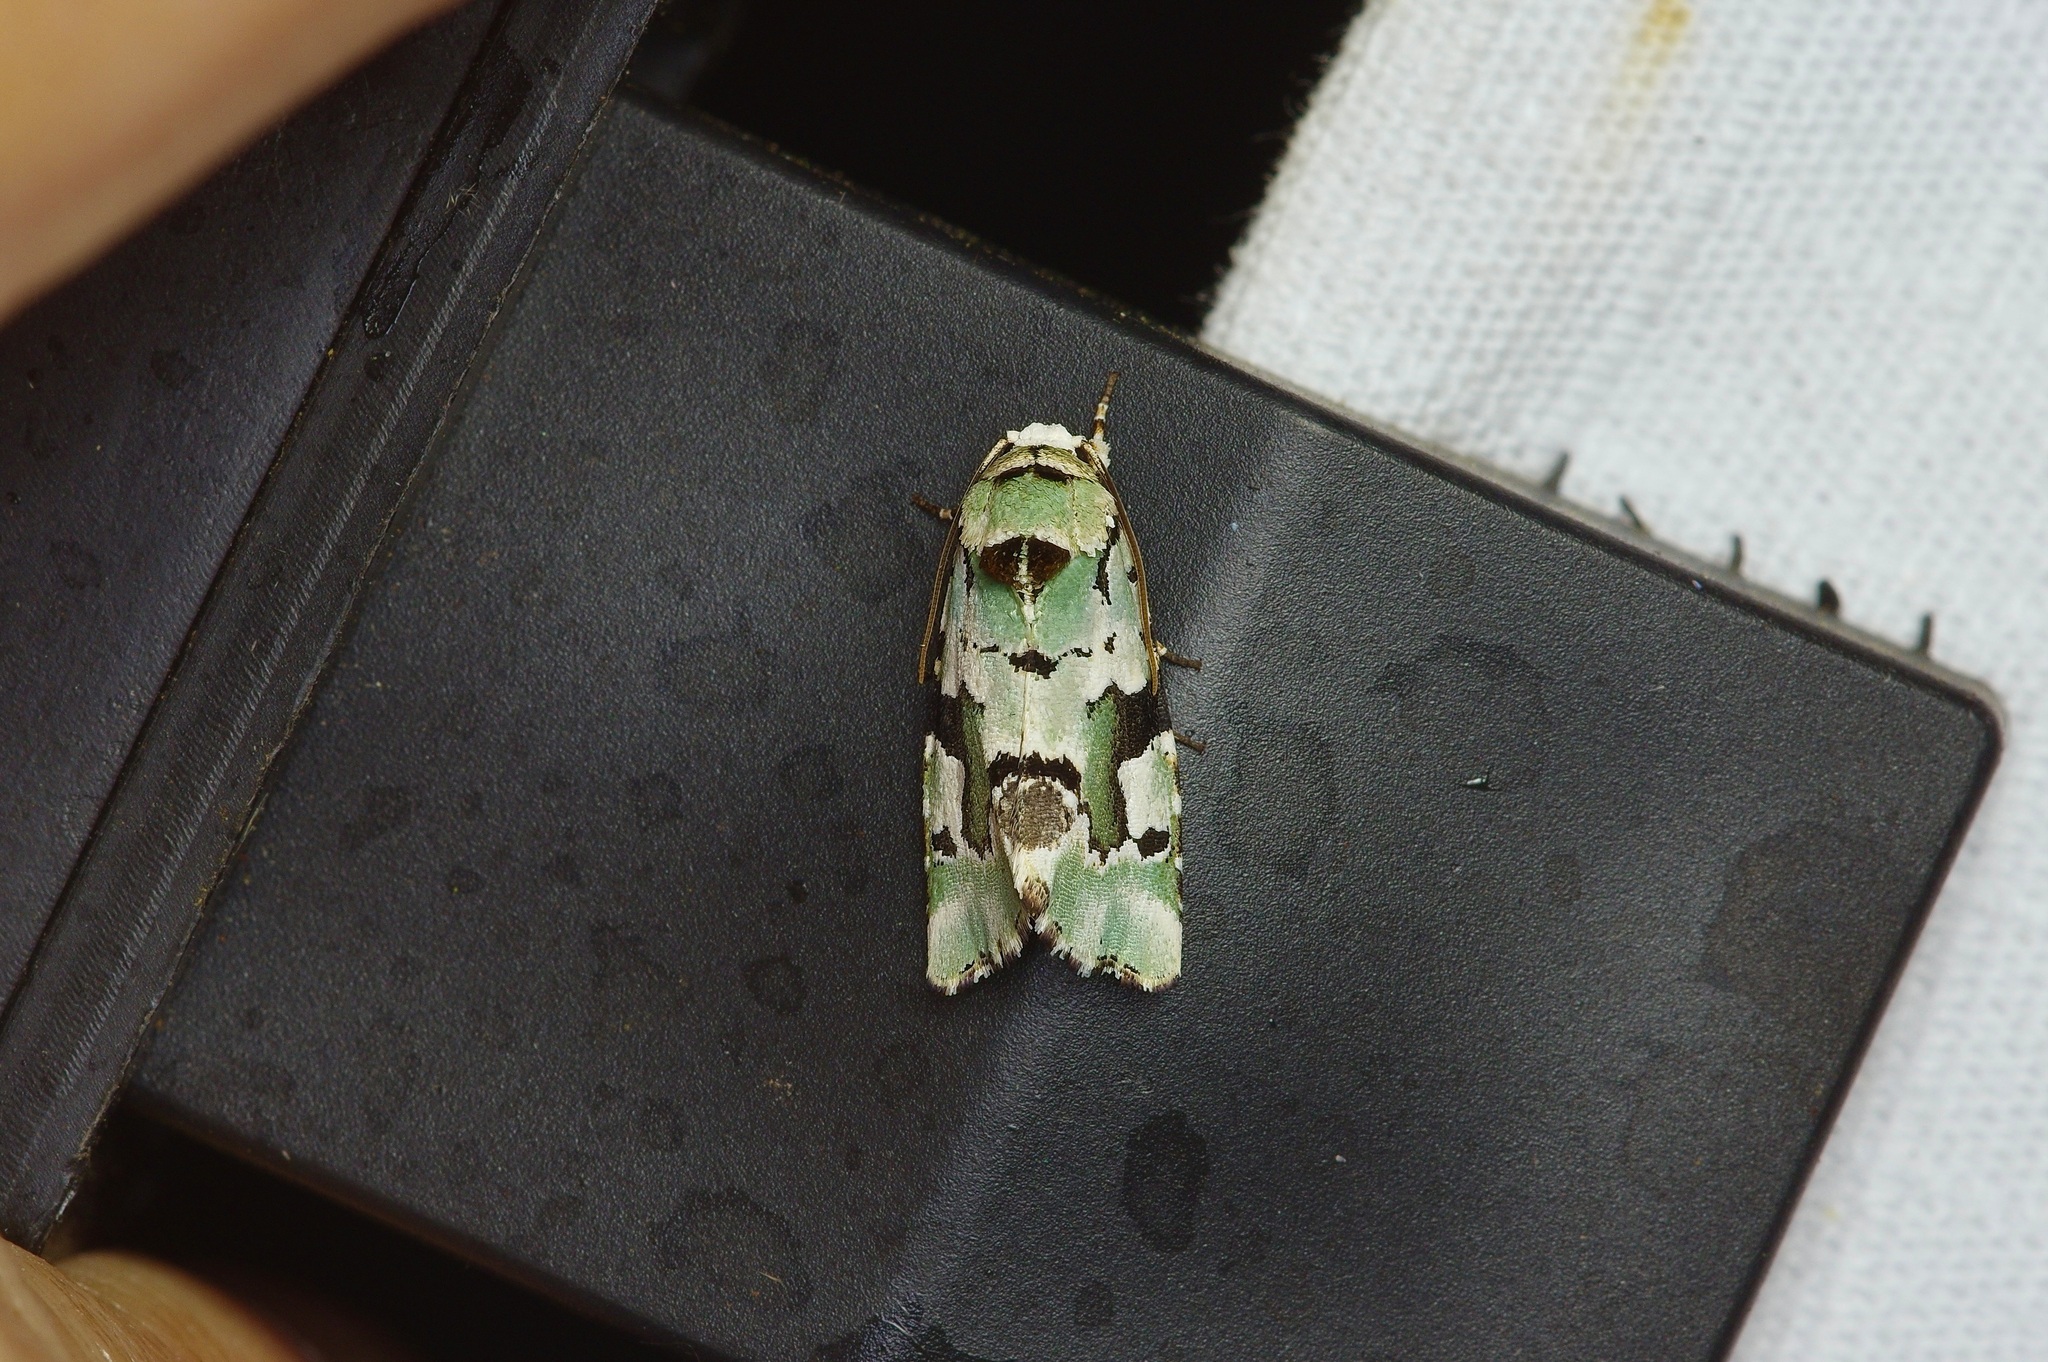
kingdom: Animalia
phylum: Arthropoda
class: Insecta
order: Lepidoptera
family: Noctuidae
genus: Emarginea
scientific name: Emarginea percara
